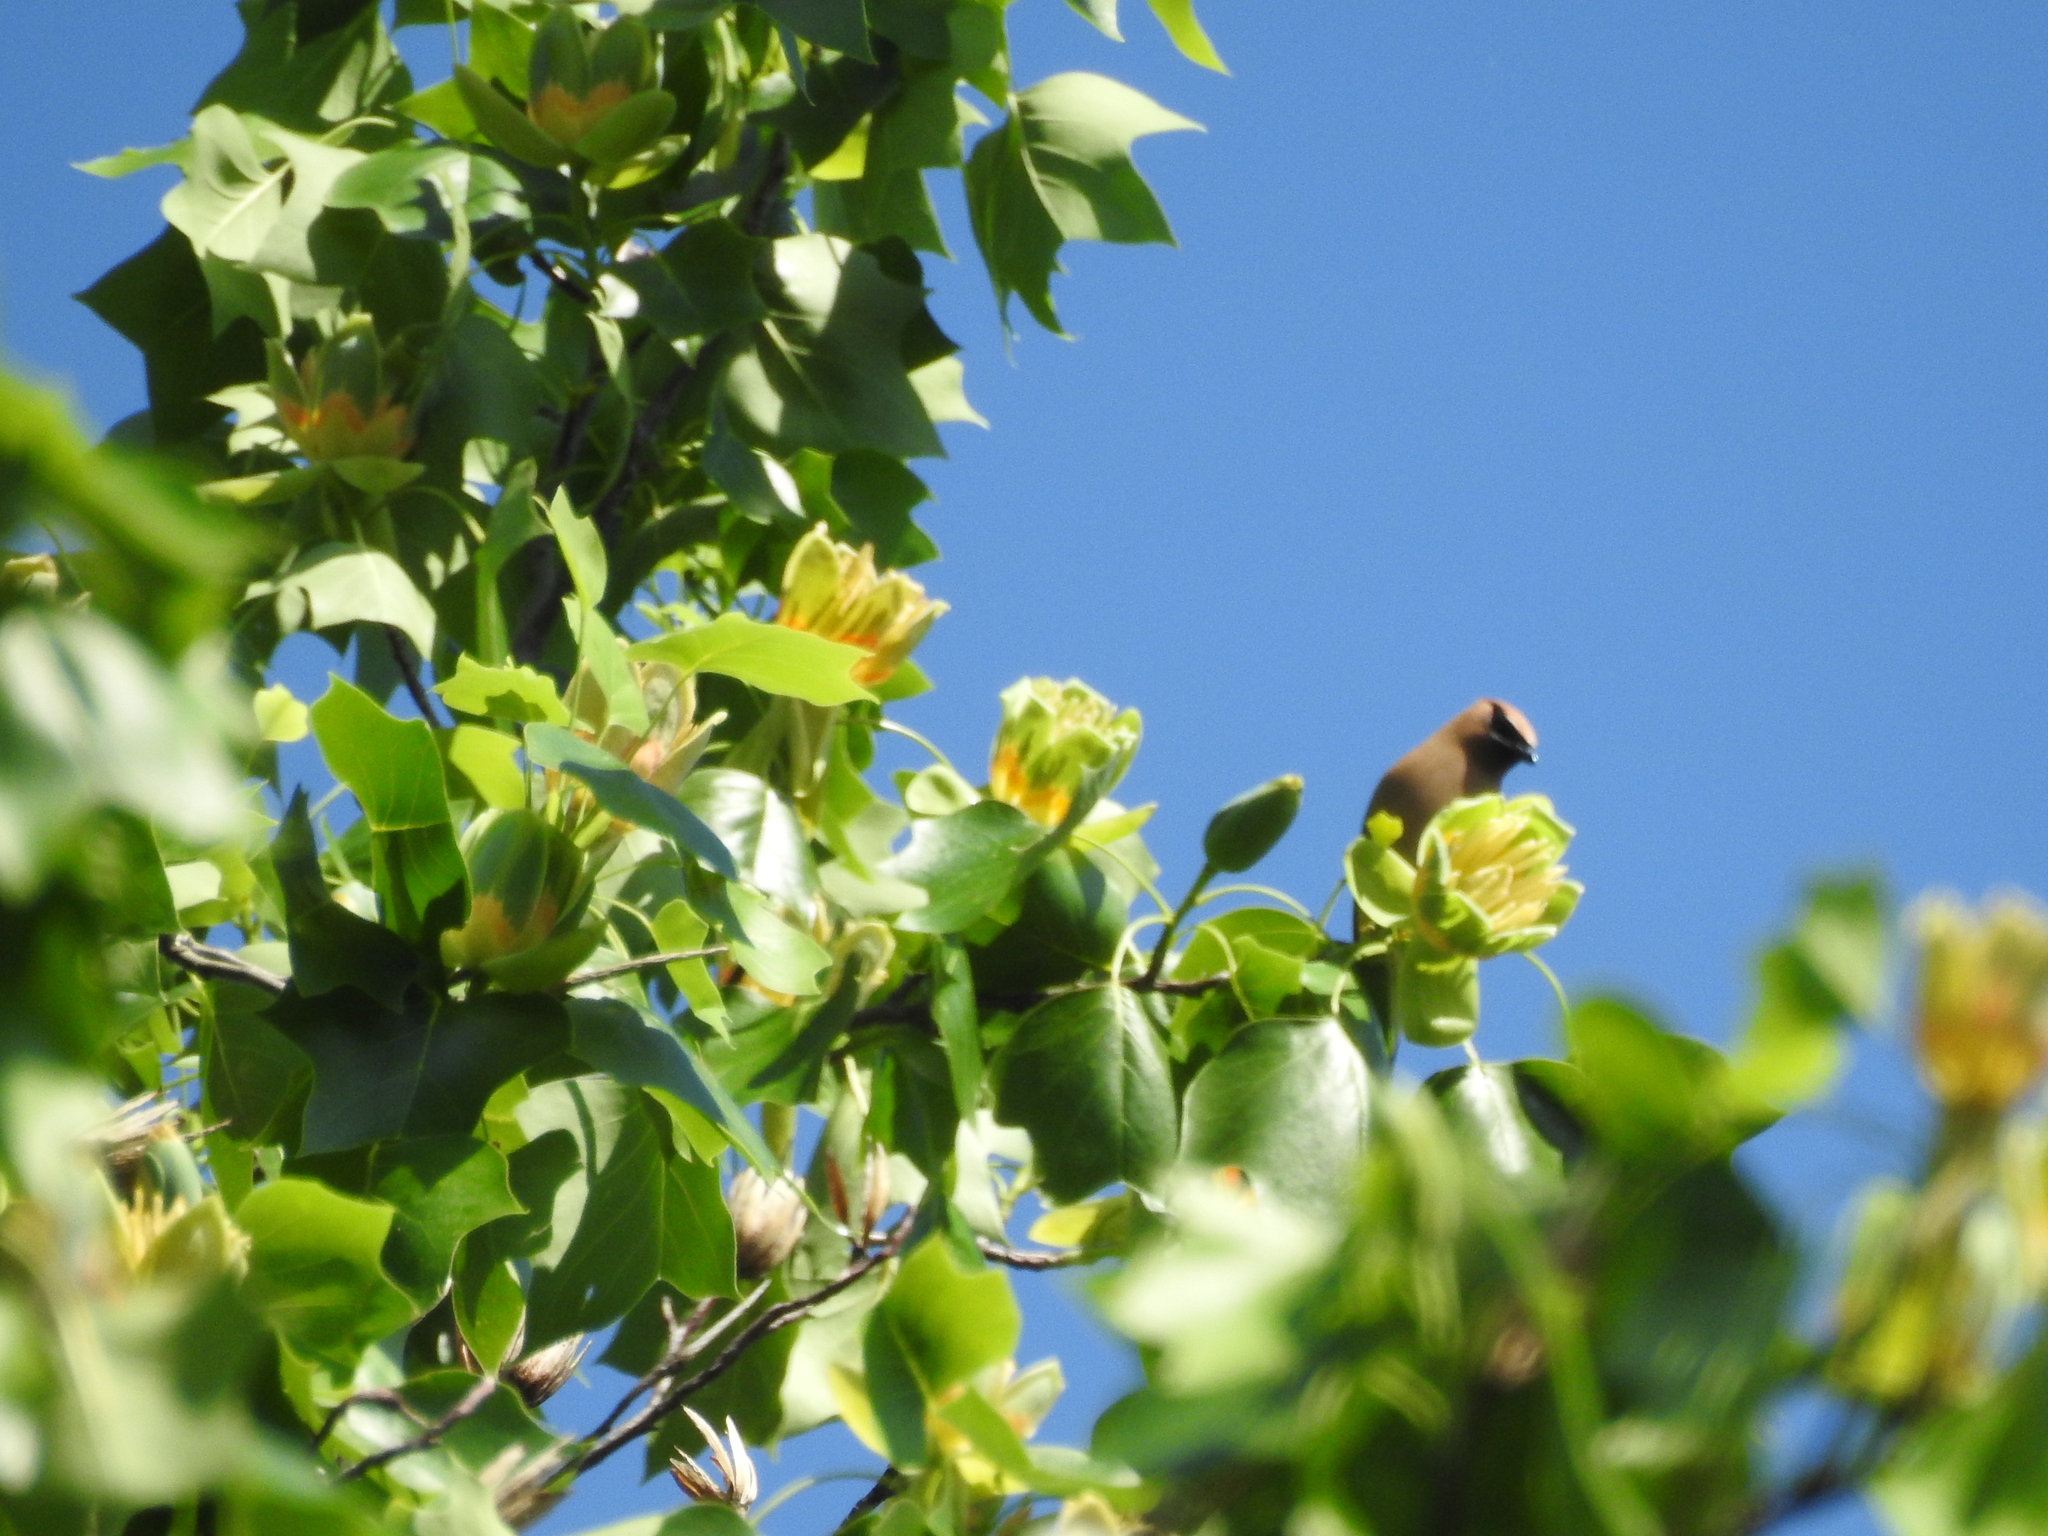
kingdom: Animalia
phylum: Chordata
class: Aves
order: Passeriformes
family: Bombycillidae
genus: Bombycilla
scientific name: Bombycilla cedrorum
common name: Cedar waxwing
